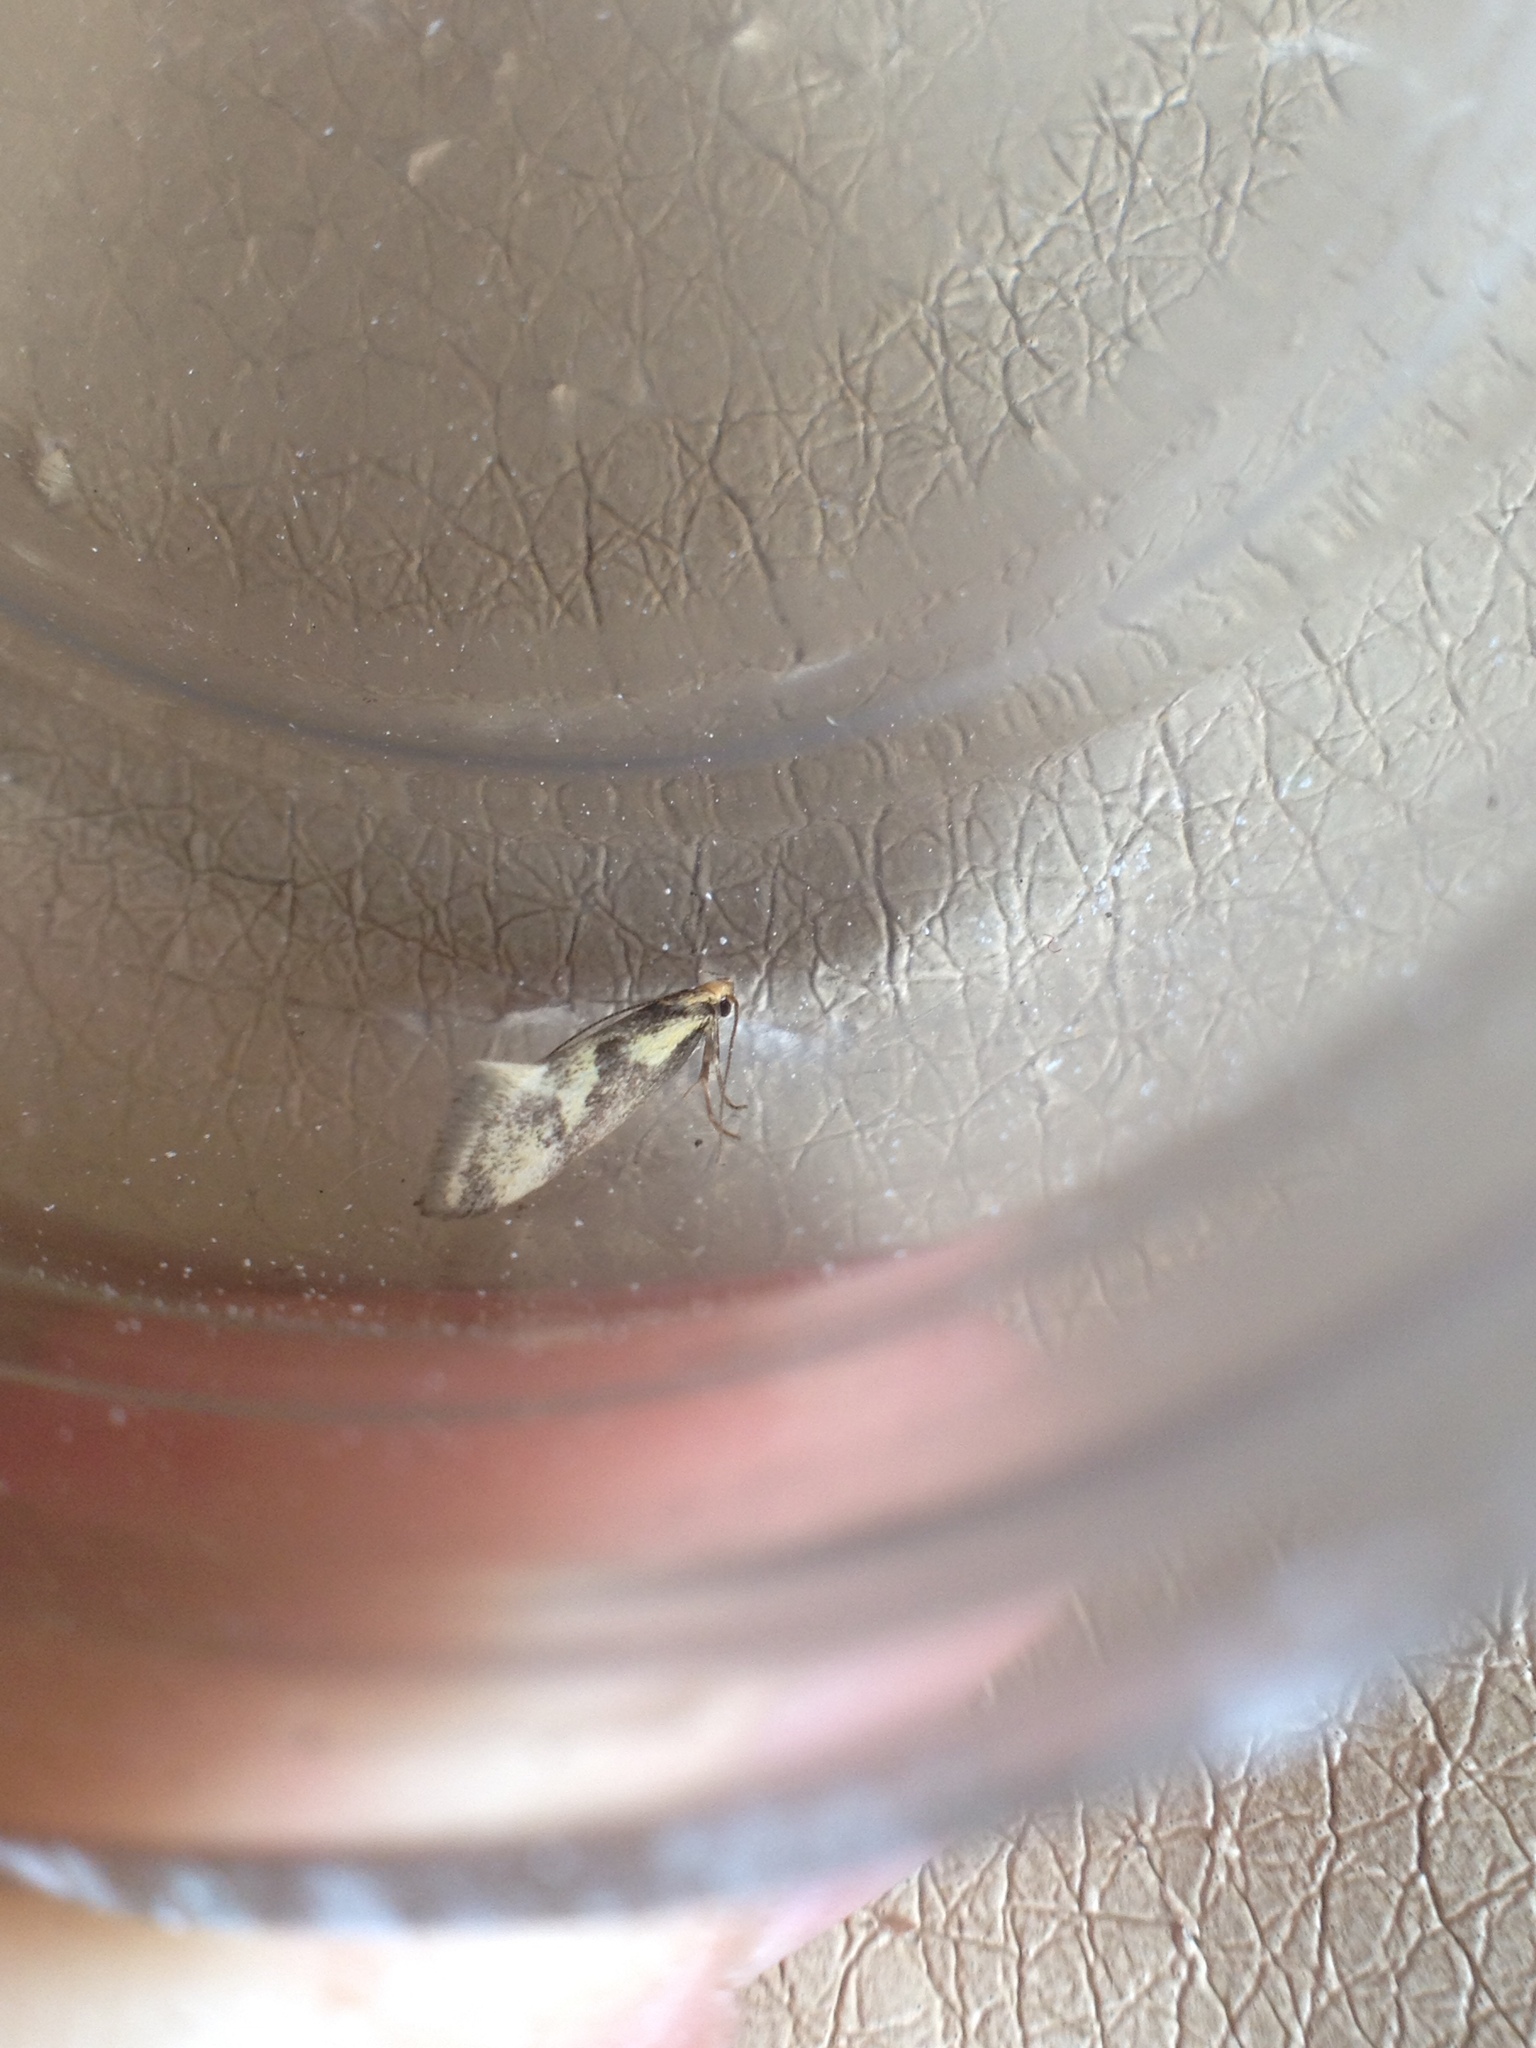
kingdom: Animalia
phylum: Arthropoda
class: Insecta
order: Lepidoptera
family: Oecophoridae
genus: Denisia
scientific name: Denisia stipella
